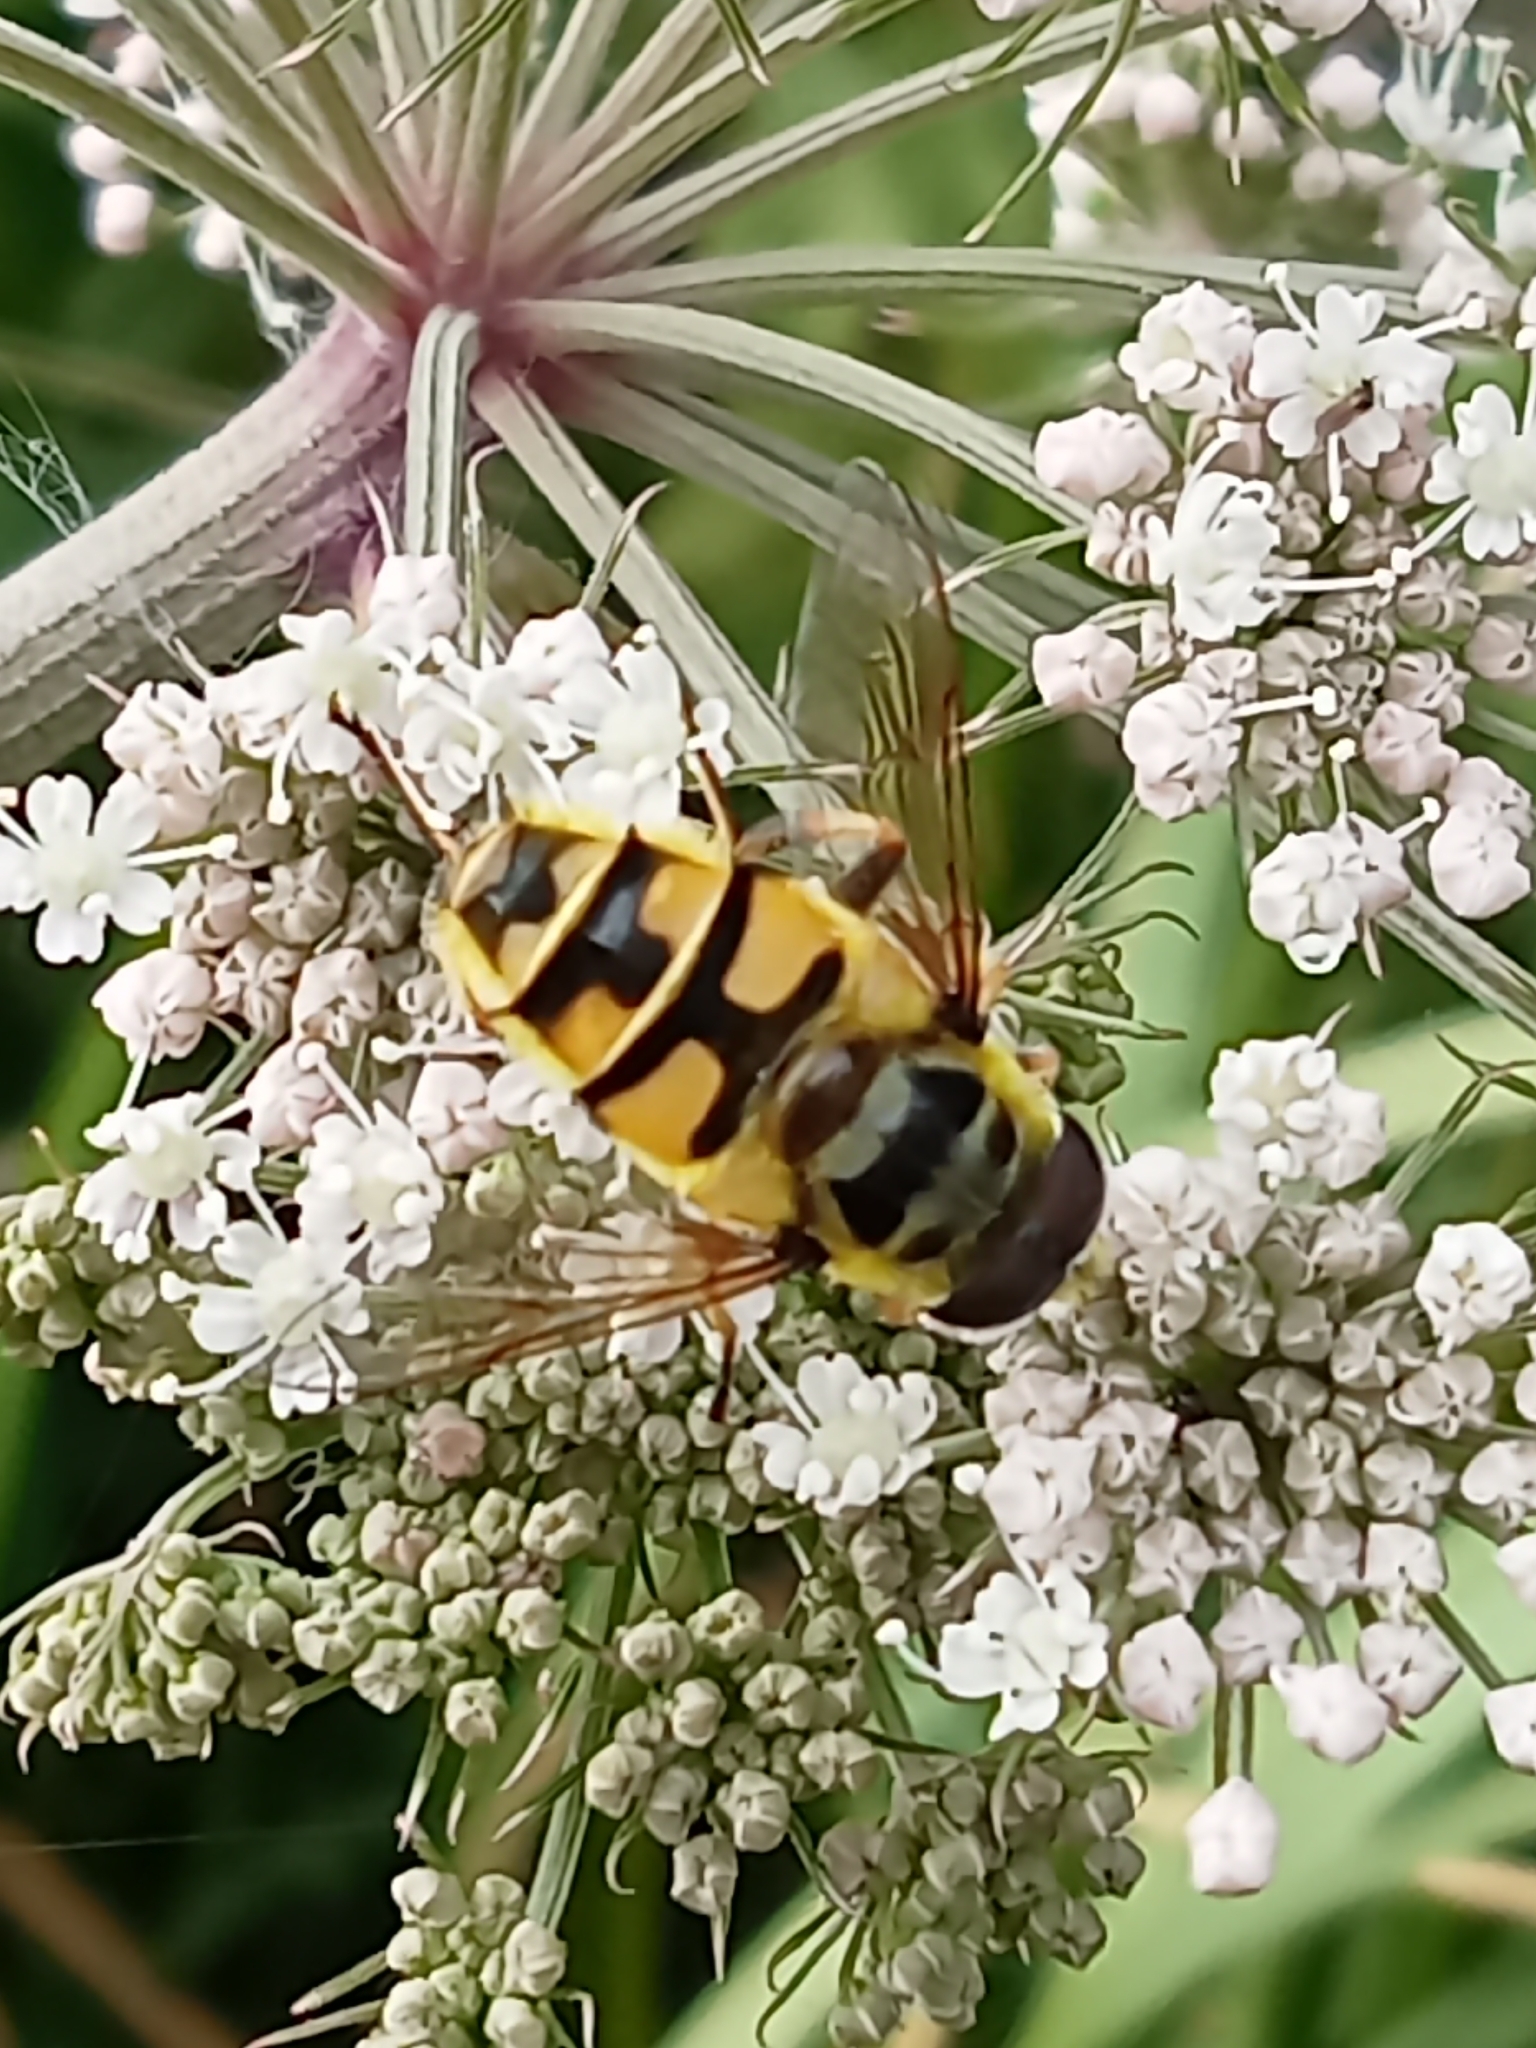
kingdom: Animalia
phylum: Arthropoda
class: Insecta
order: Diptera
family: Syrphidae
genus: Myathropa
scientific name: Myathropa florea
